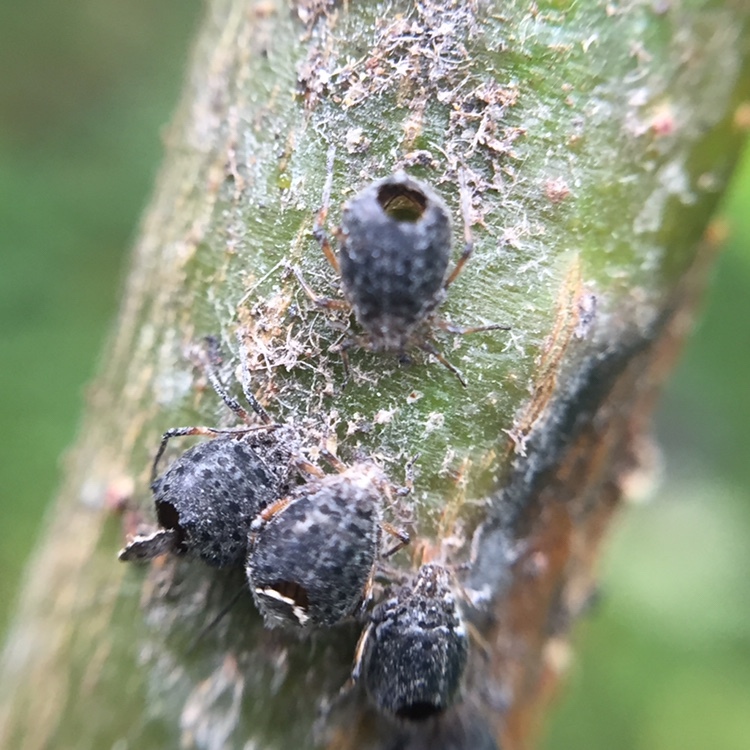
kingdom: Animalia
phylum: Arthropoda
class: Insecta
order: Hymenoptera
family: Braconidae
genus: Pauesia
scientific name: Pauesia nigrovaria
